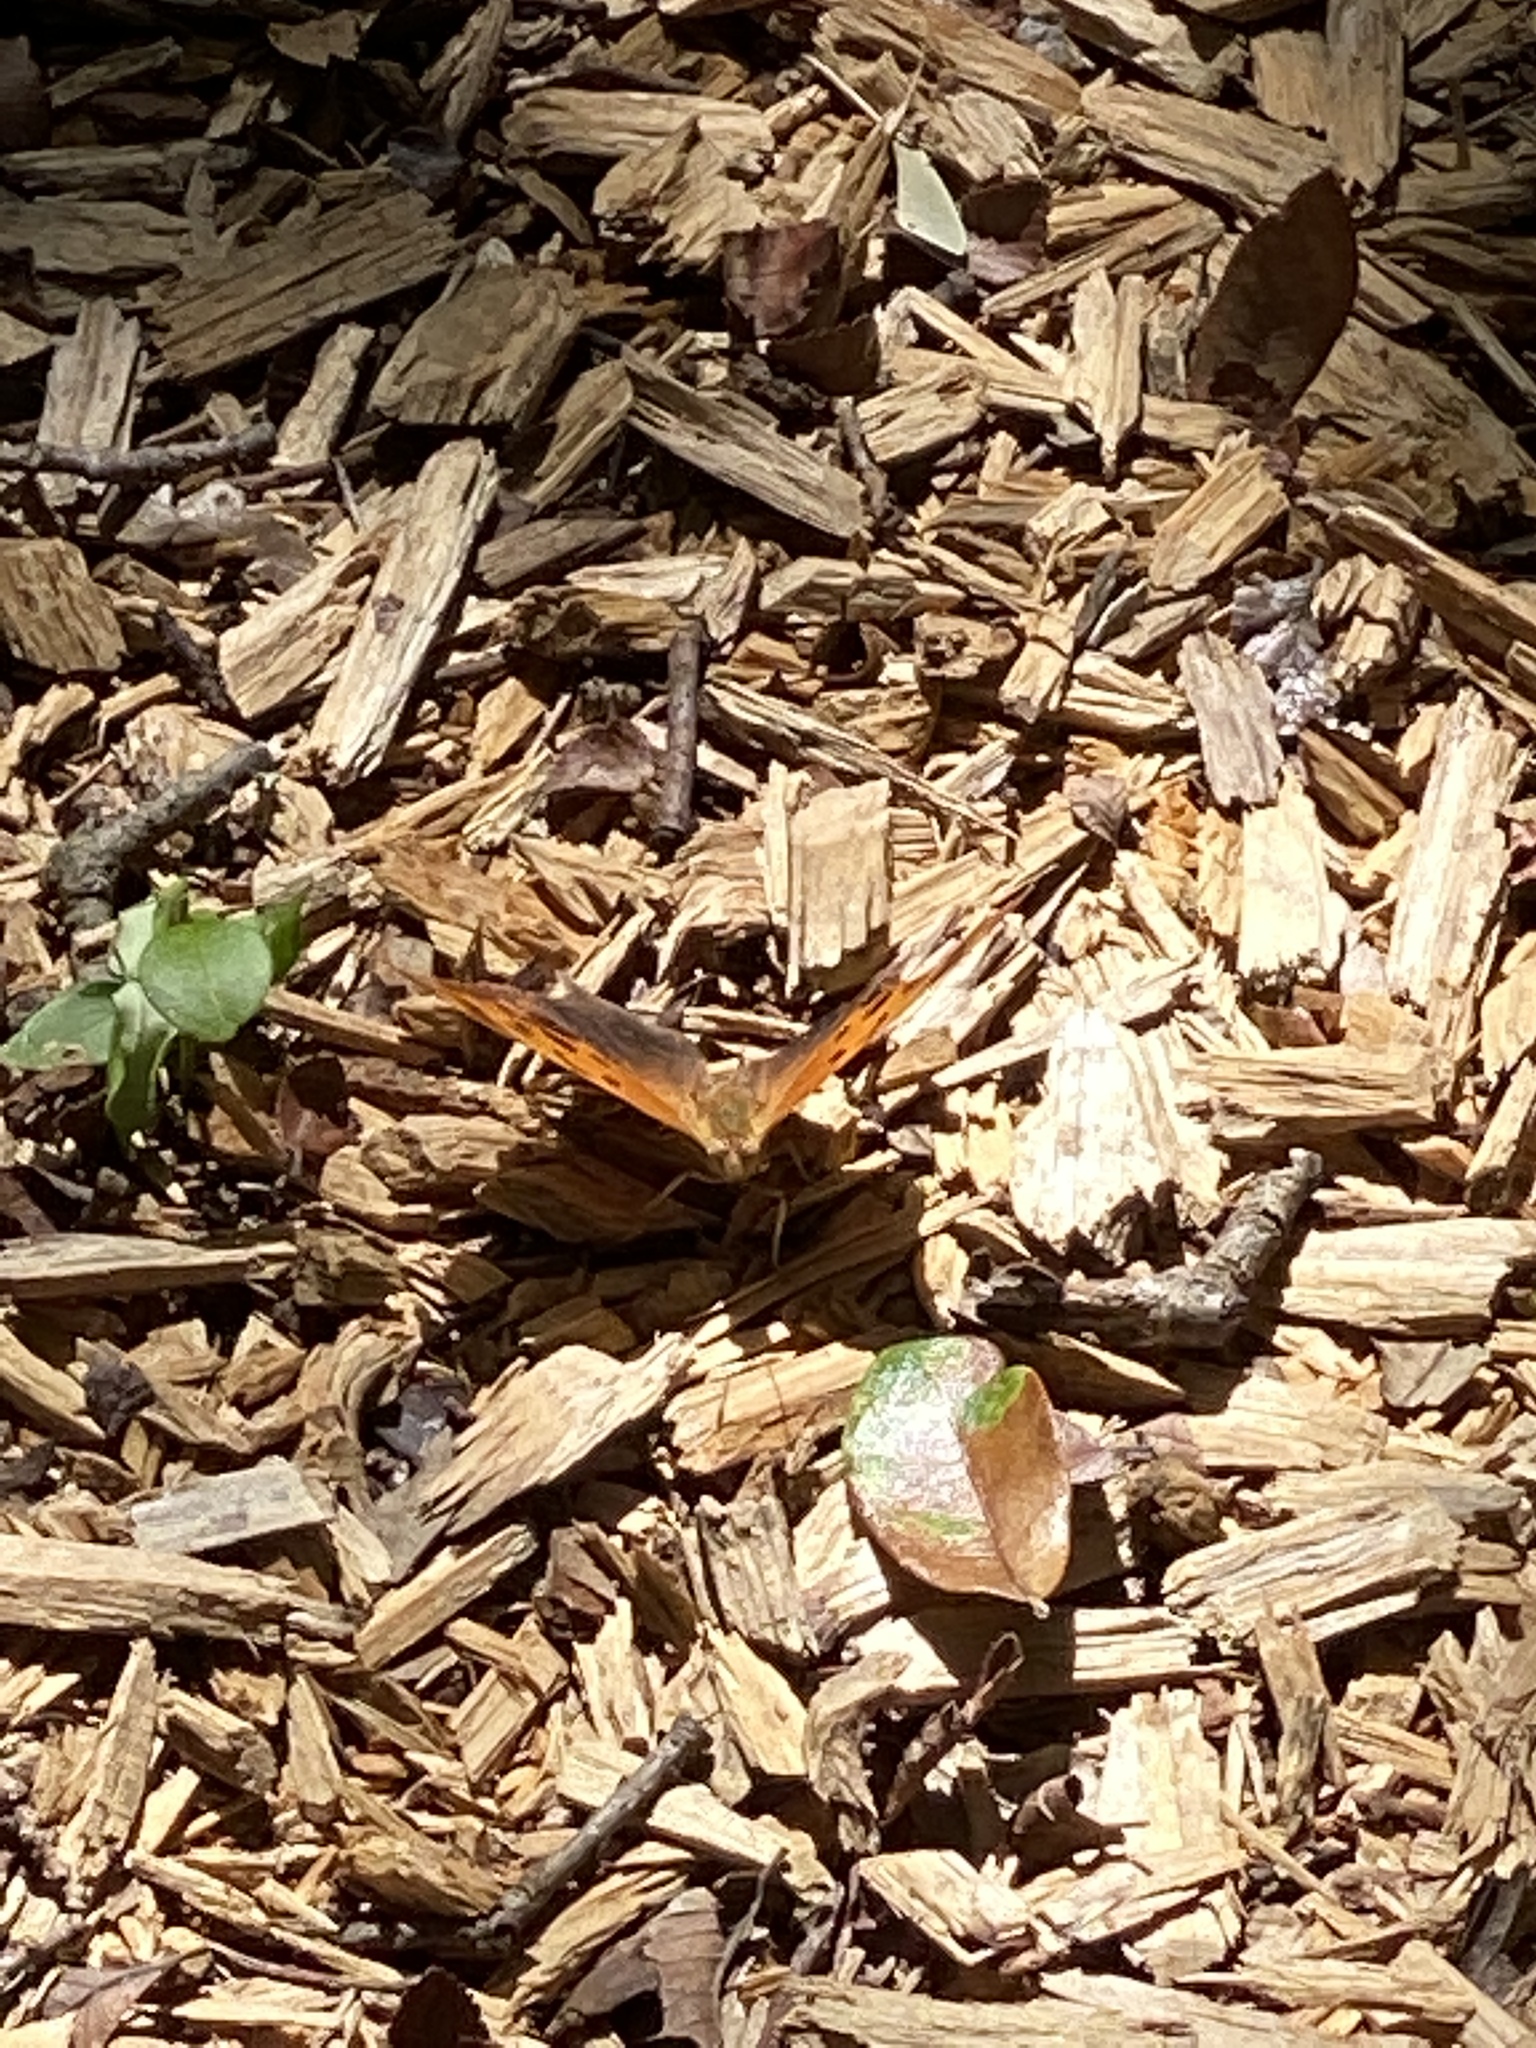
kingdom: Animalia
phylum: Arthropoda
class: Insecta
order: Lepidoptera
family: Nymphalidae
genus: Polygonia
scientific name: Polygonia interrogationis
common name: Question mark
